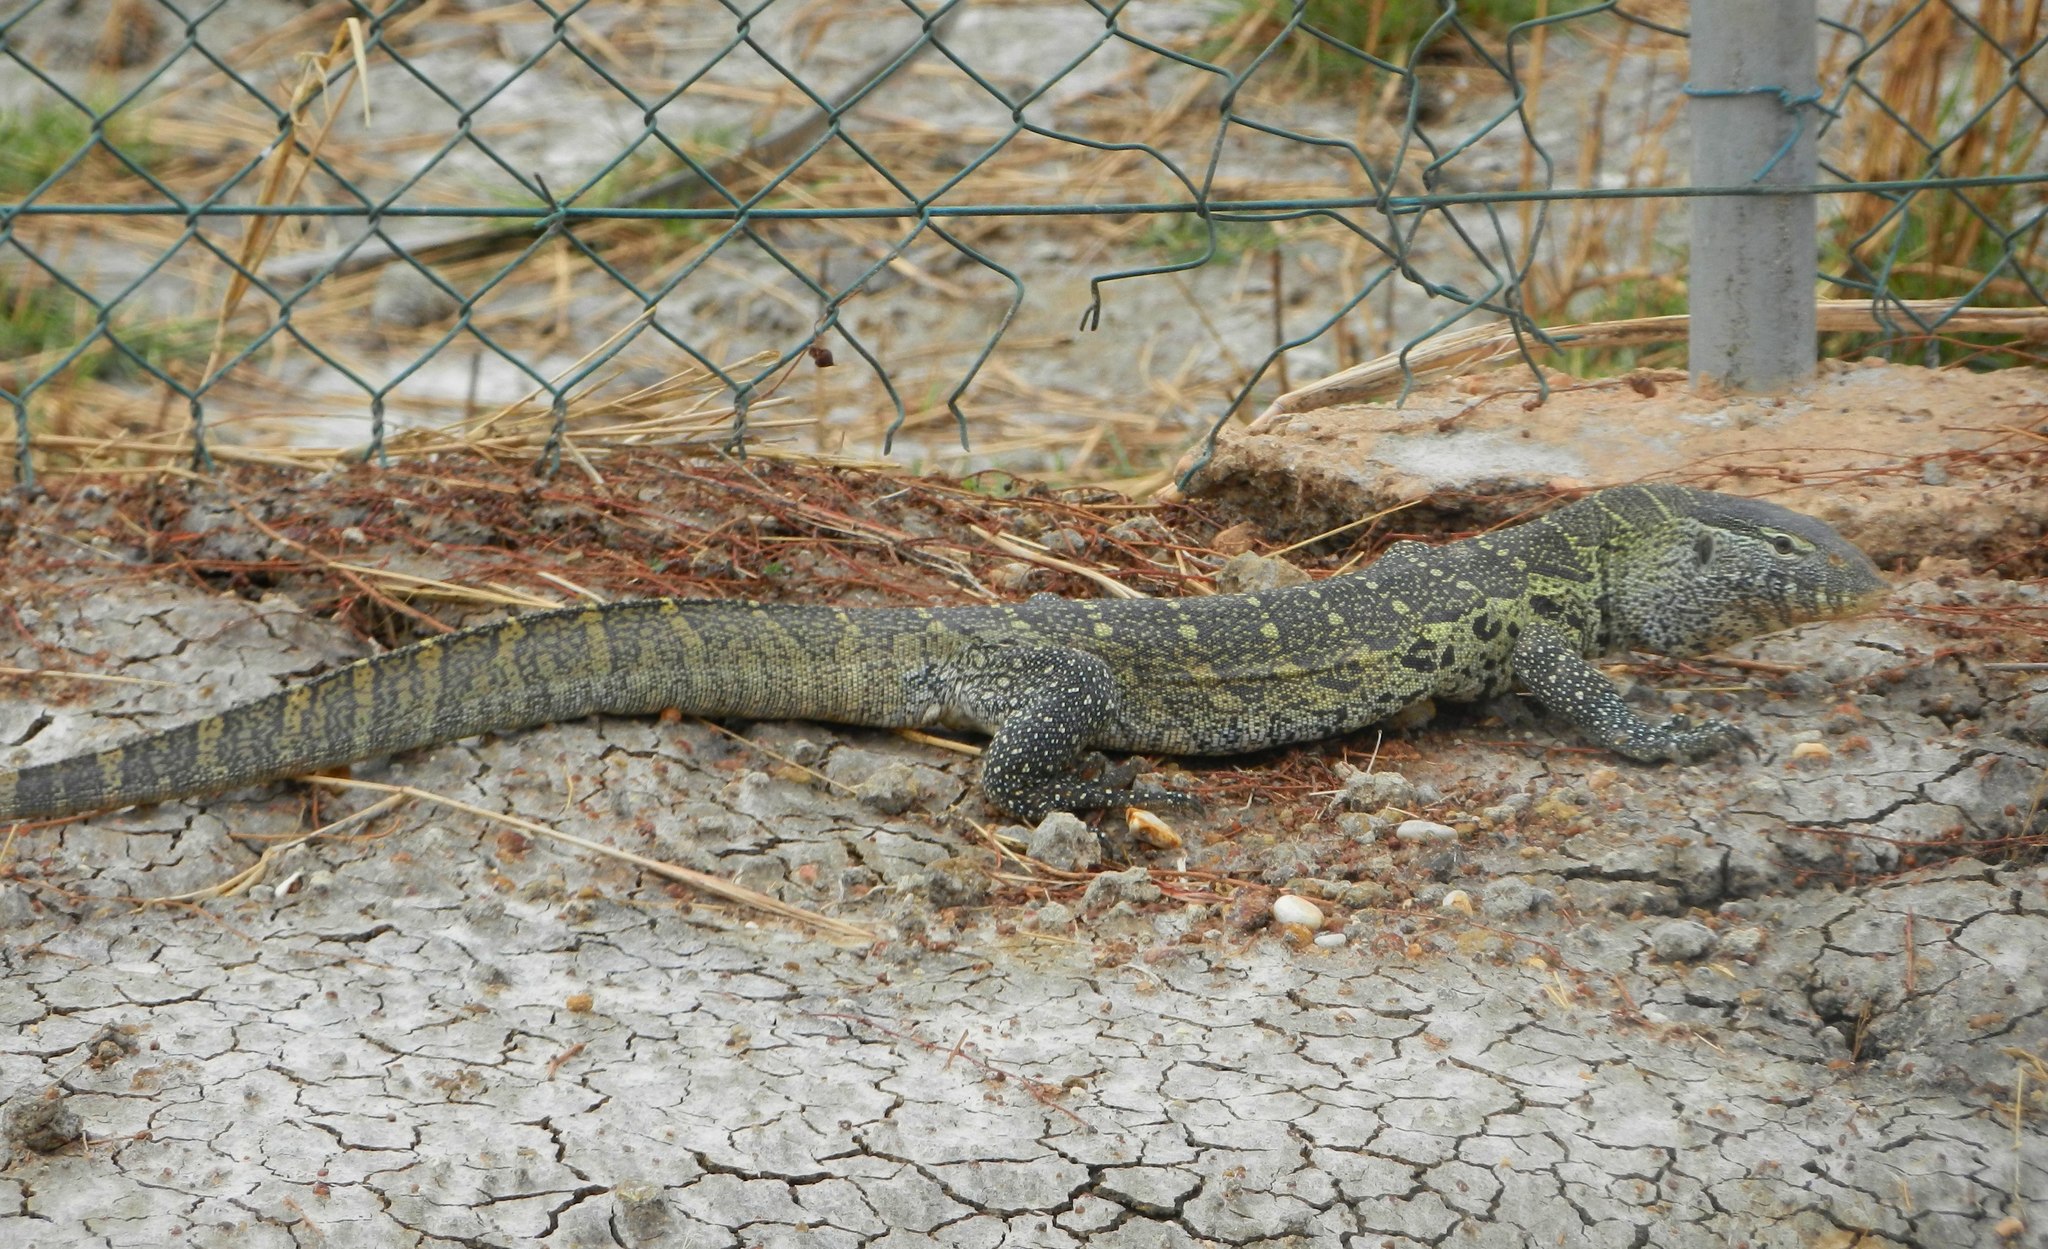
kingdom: Animalia
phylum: Chordata
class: Squamata
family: Varanidae
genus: Varanus
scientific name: Varanus niloticus
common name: Nile monitor
